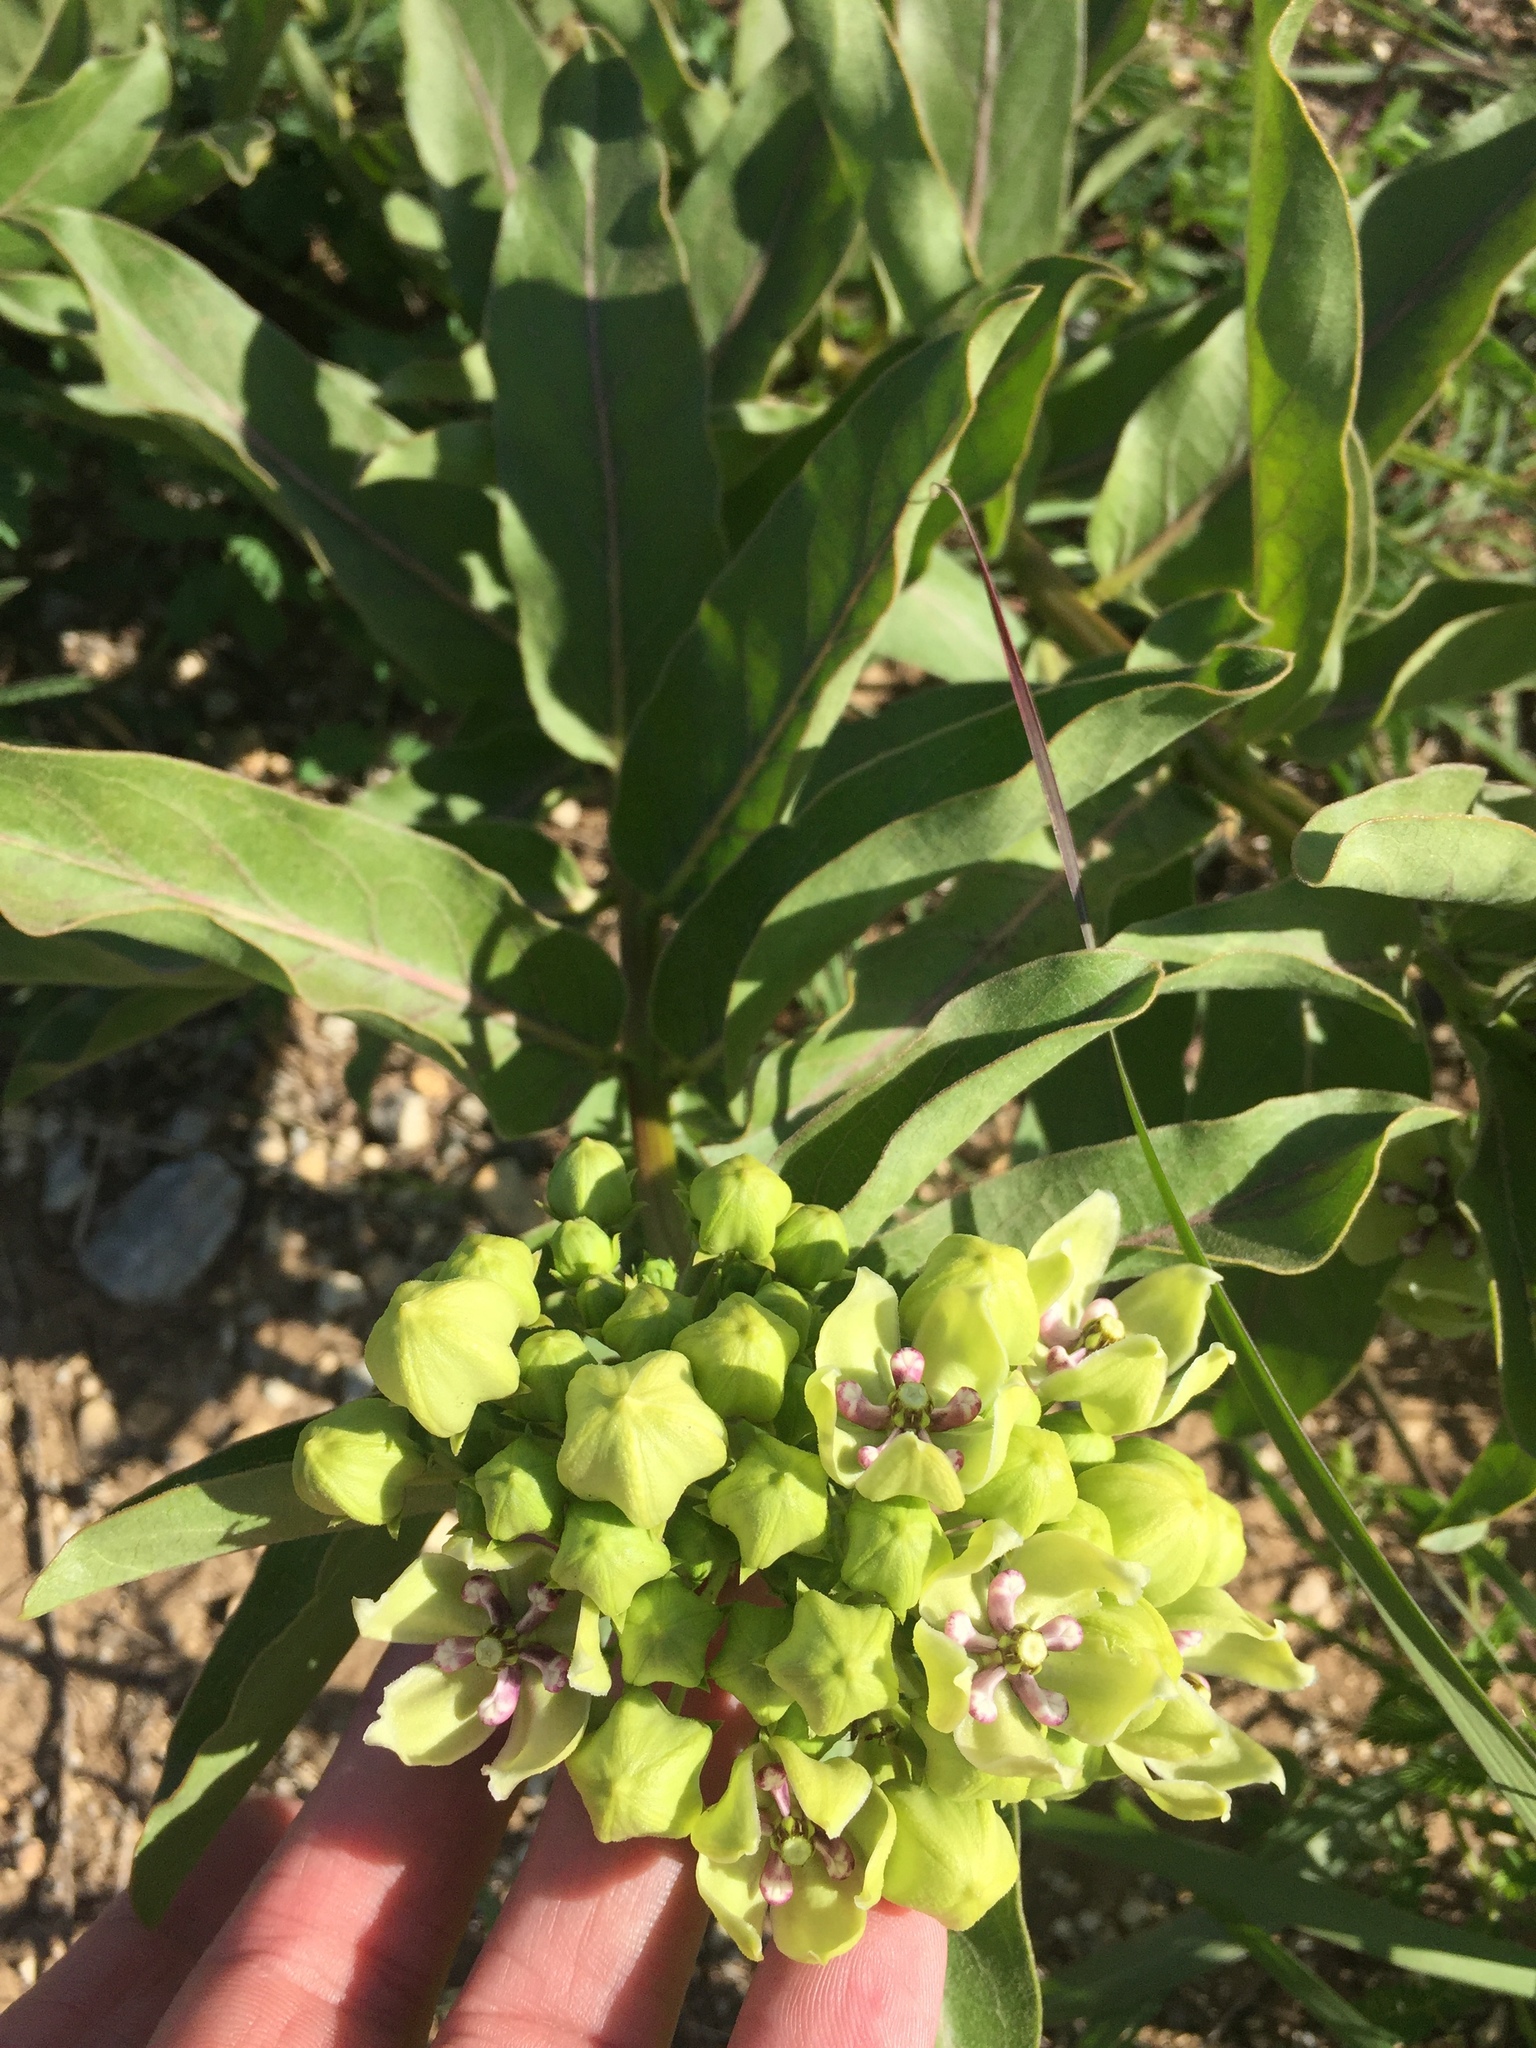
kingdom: Plantae
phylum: Tracheophyta
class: Magnoliopsida
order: Gentianales
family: Apocynaceae
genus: Asclepias
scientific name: Asclepias viridis
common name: Antelope-horns
